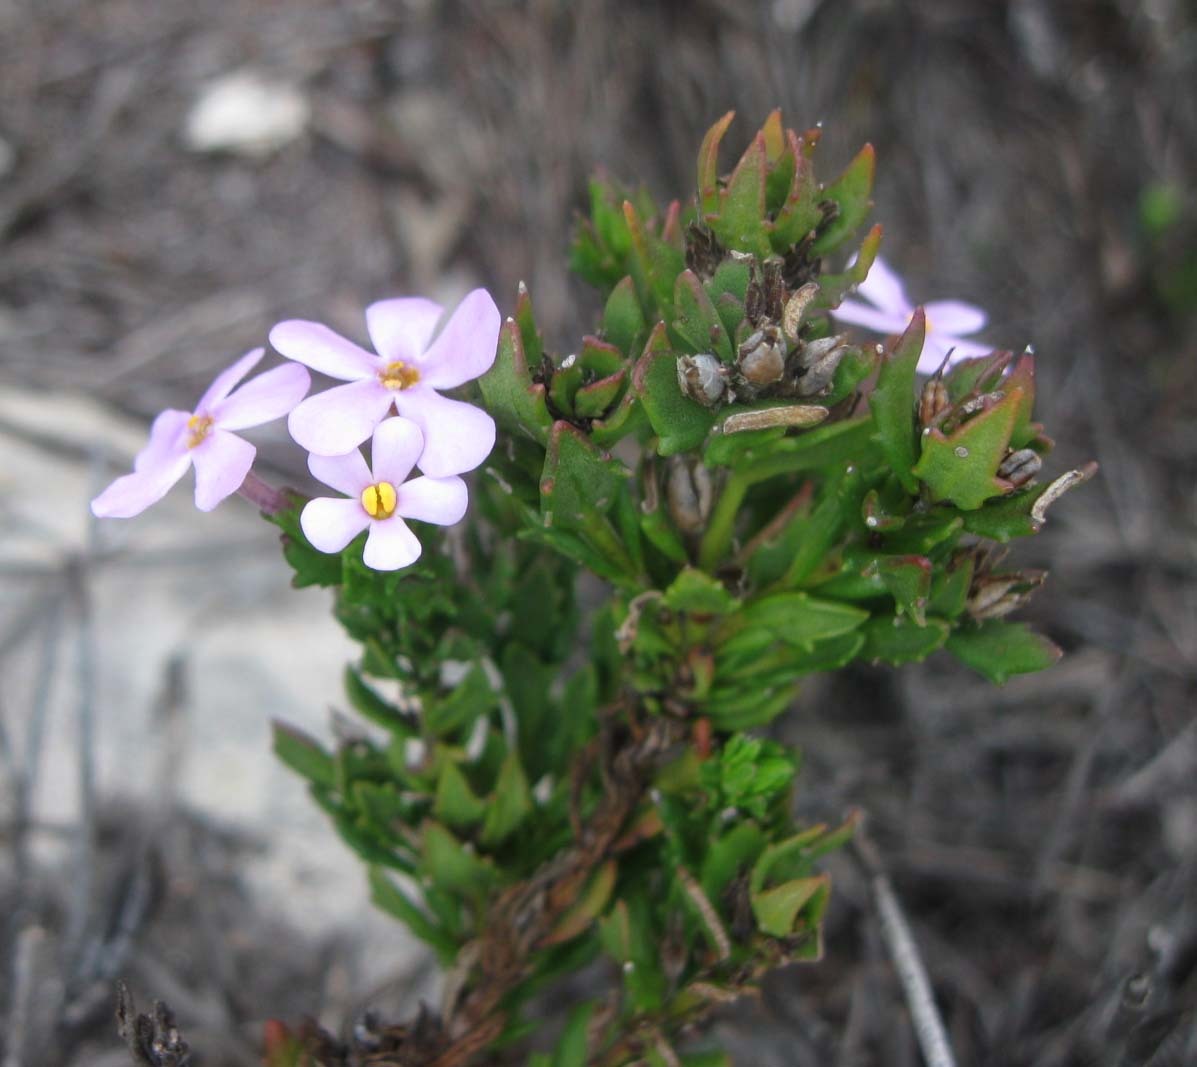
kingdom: Plantae
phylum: Tracheophyta
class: Magnoliopsida
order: Lamiales
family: Scrophulariaceae
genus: Chaenostoma
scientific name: Chaenostoma hispidum
